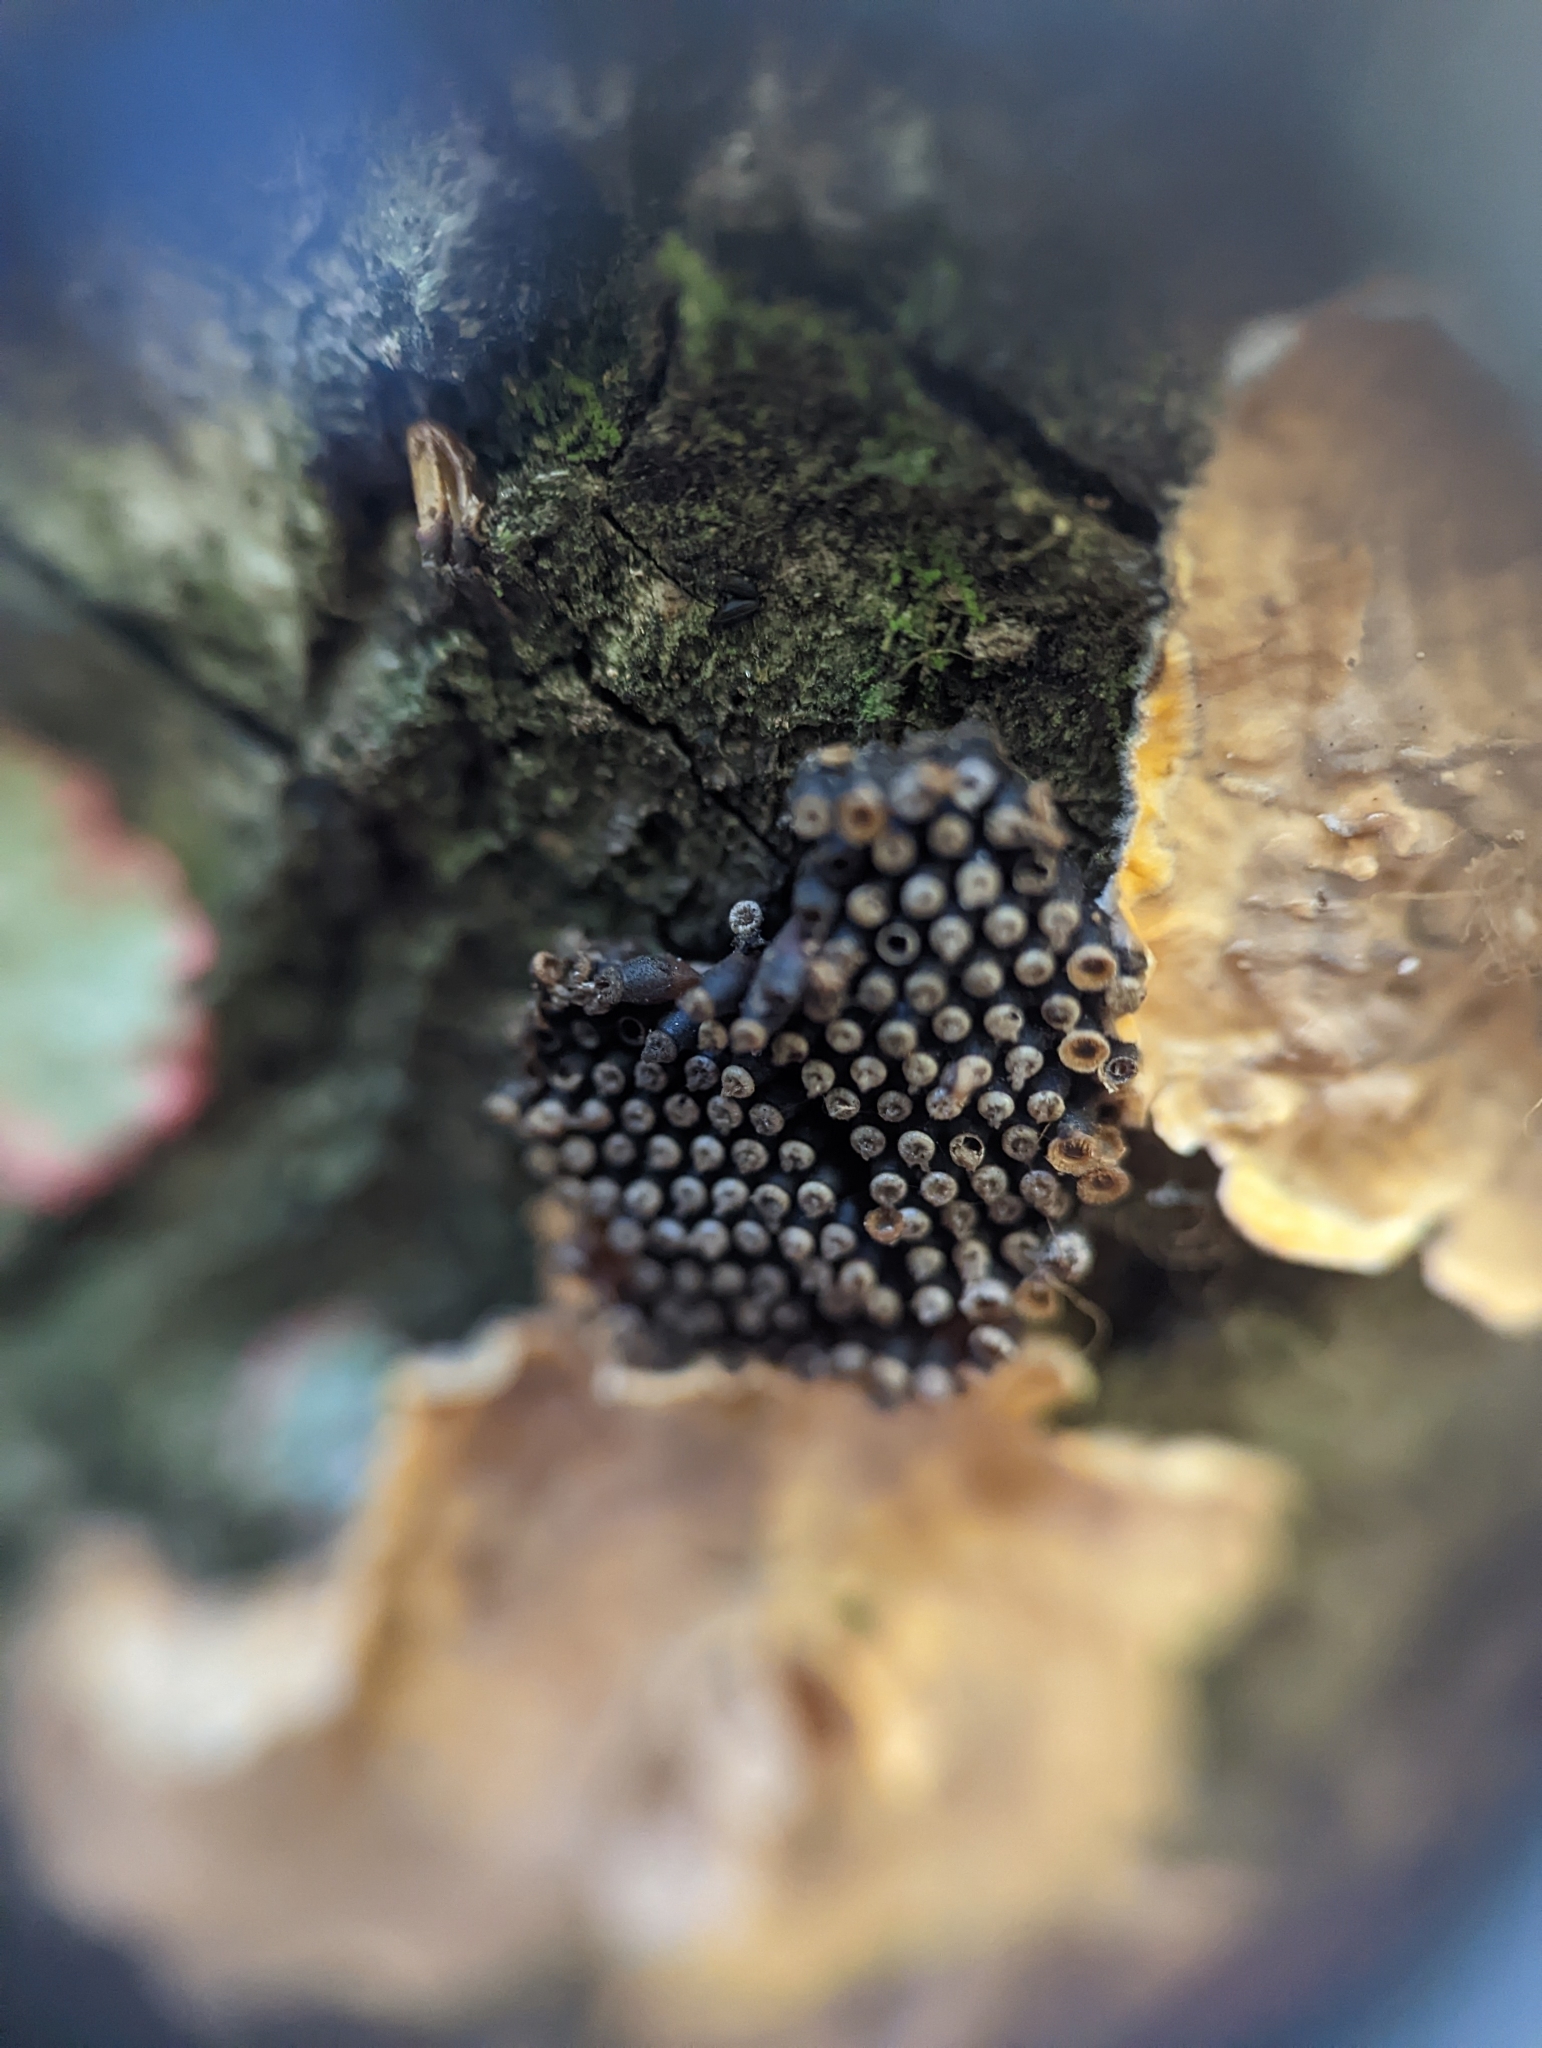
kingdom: Animalia
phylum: Arthropoda
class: Insecta
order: Hemiptera
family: Reduviidae
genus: Arilus
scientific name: Arilus cristatus
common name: North american wheel bug
